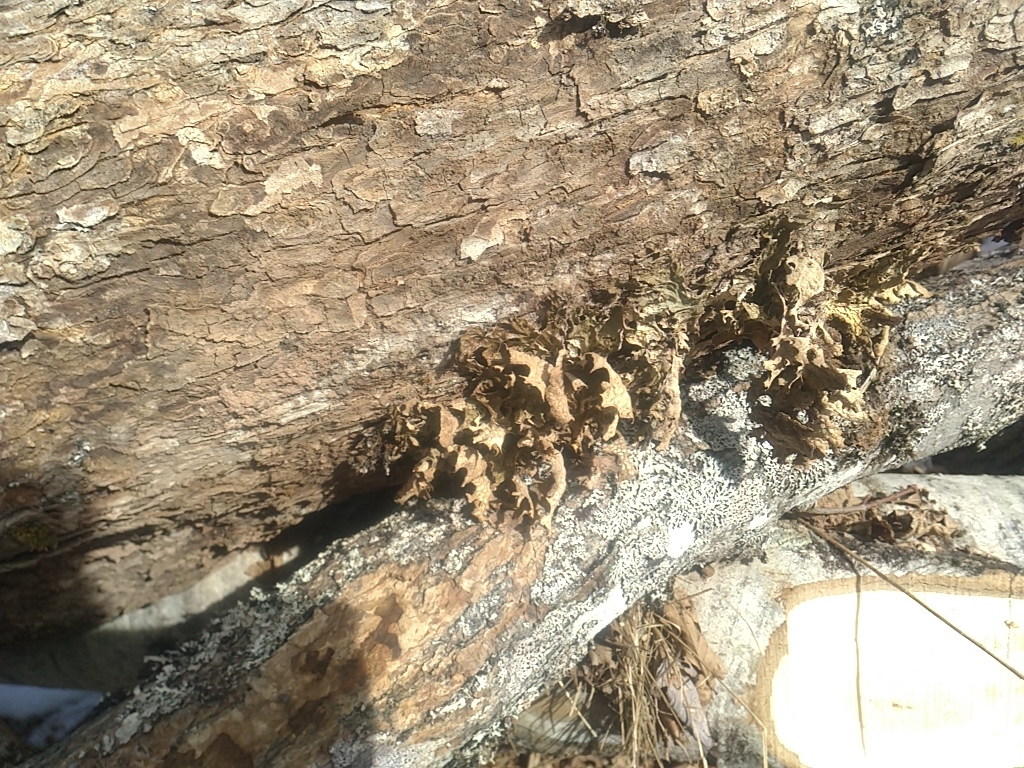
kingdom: Fungi
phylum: Ascomycota
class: Lecanoromycetes
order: Peltigerales
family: Lobariaceae
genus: Lobaria
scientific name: Lobaria pulmonaria
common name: Lungwort
